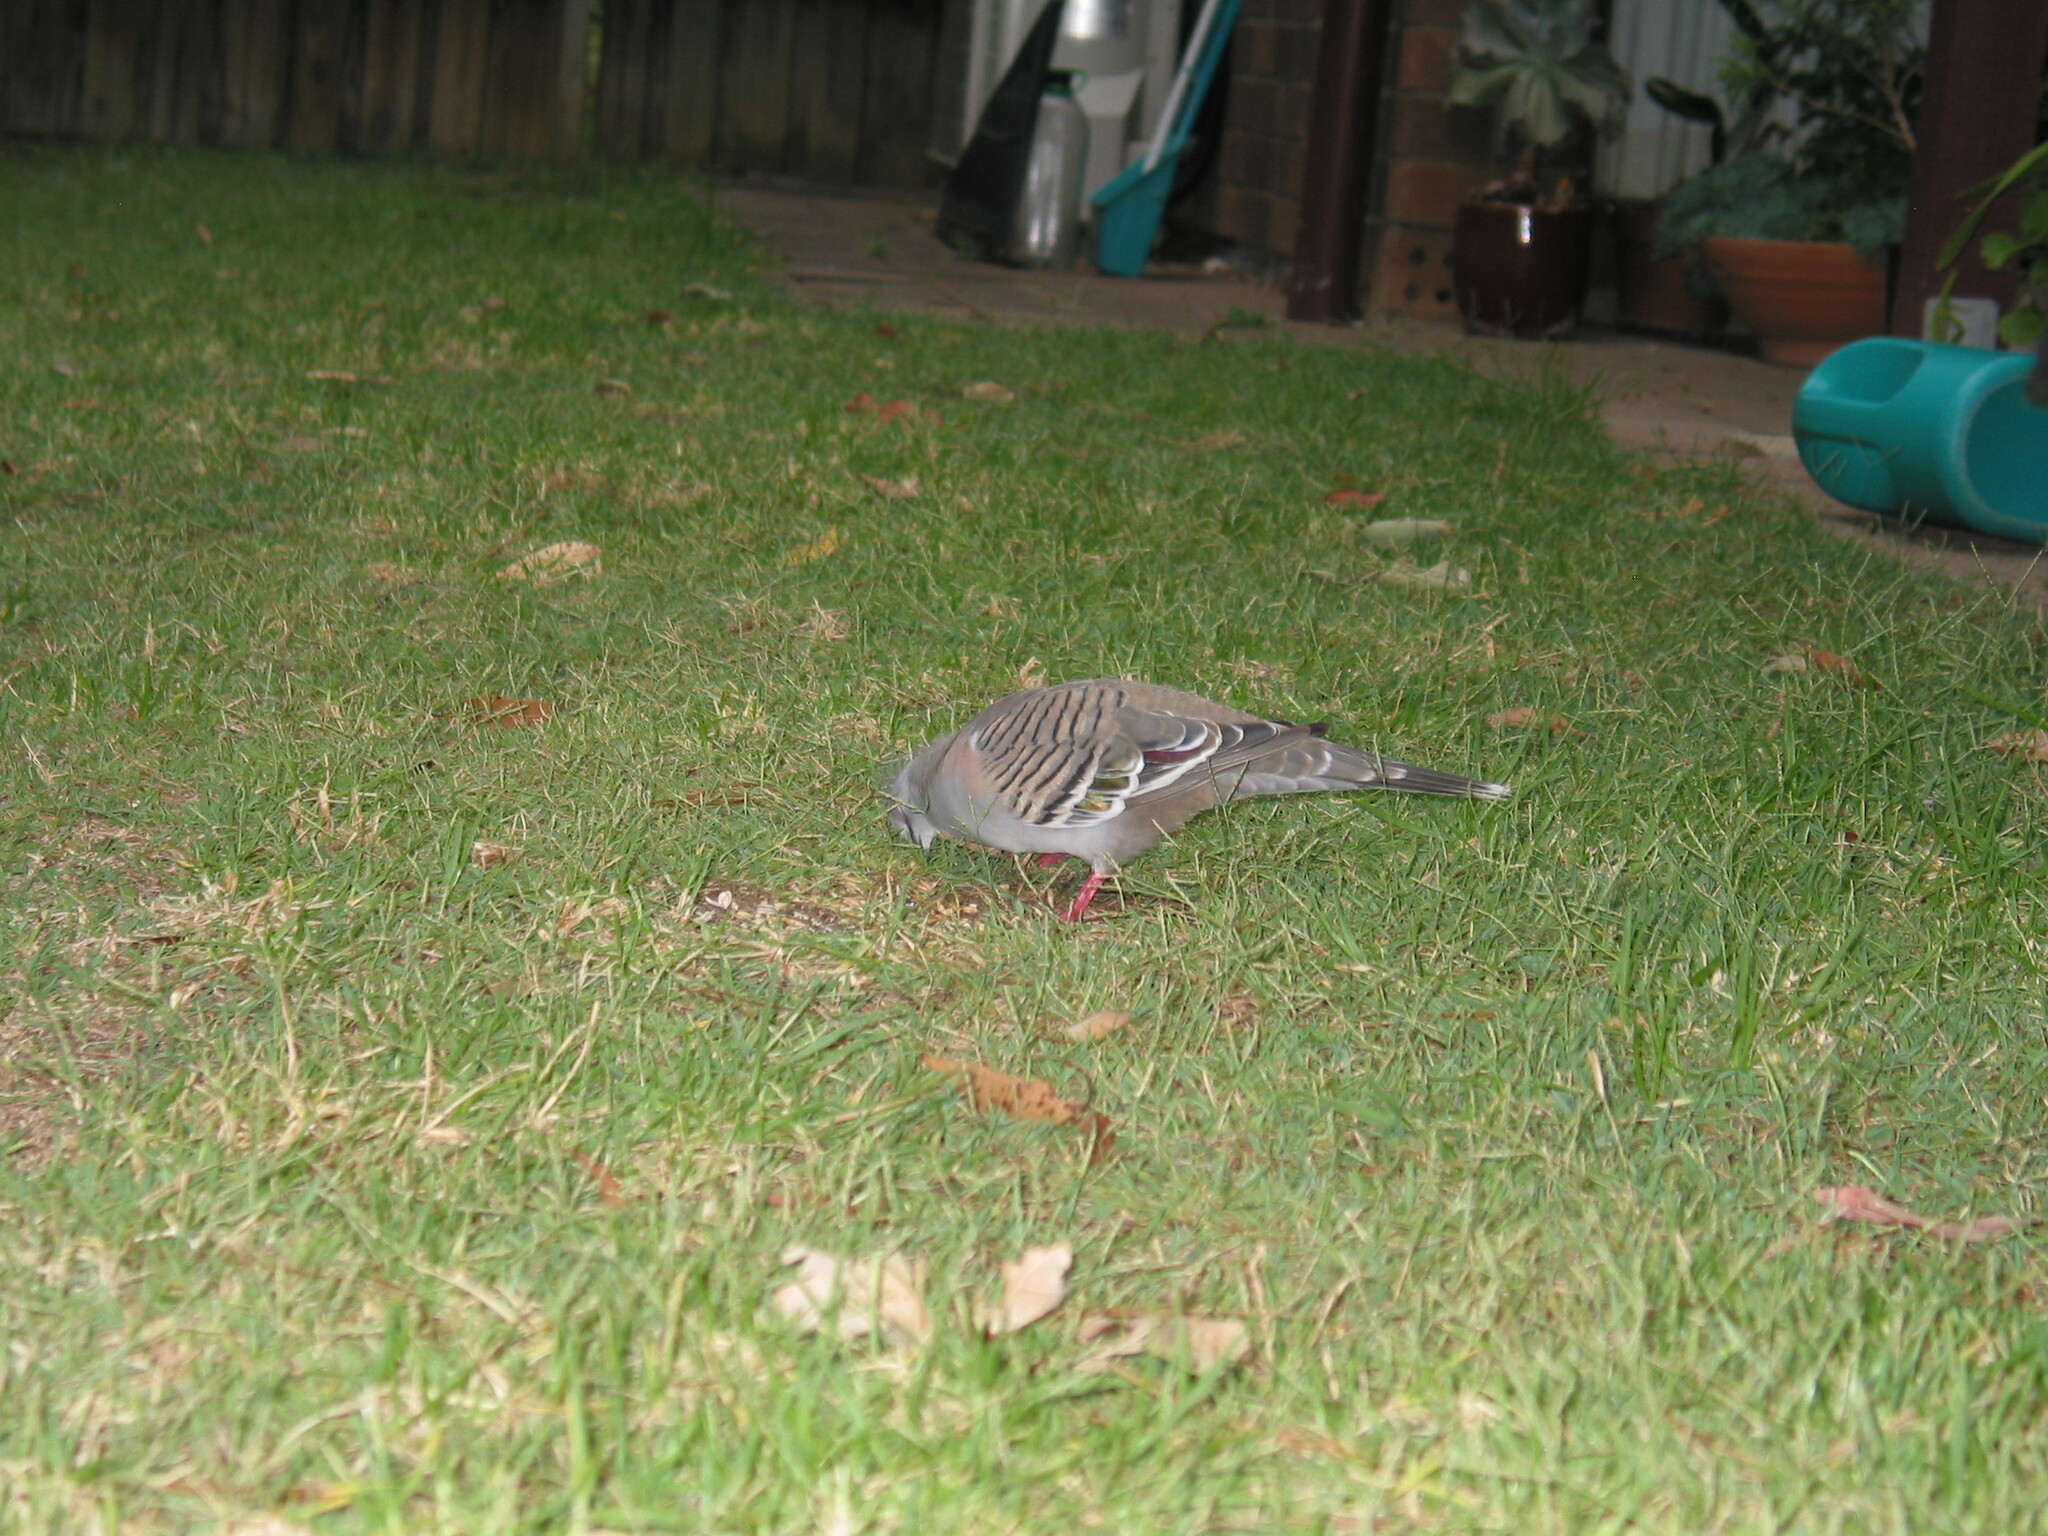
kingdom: Animalia
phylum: Chordata
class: Aves
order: Columbiformes
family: Columbidae
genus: Ocyphaps
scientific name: Ocyphaps lophotes
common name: Crested pigeon
